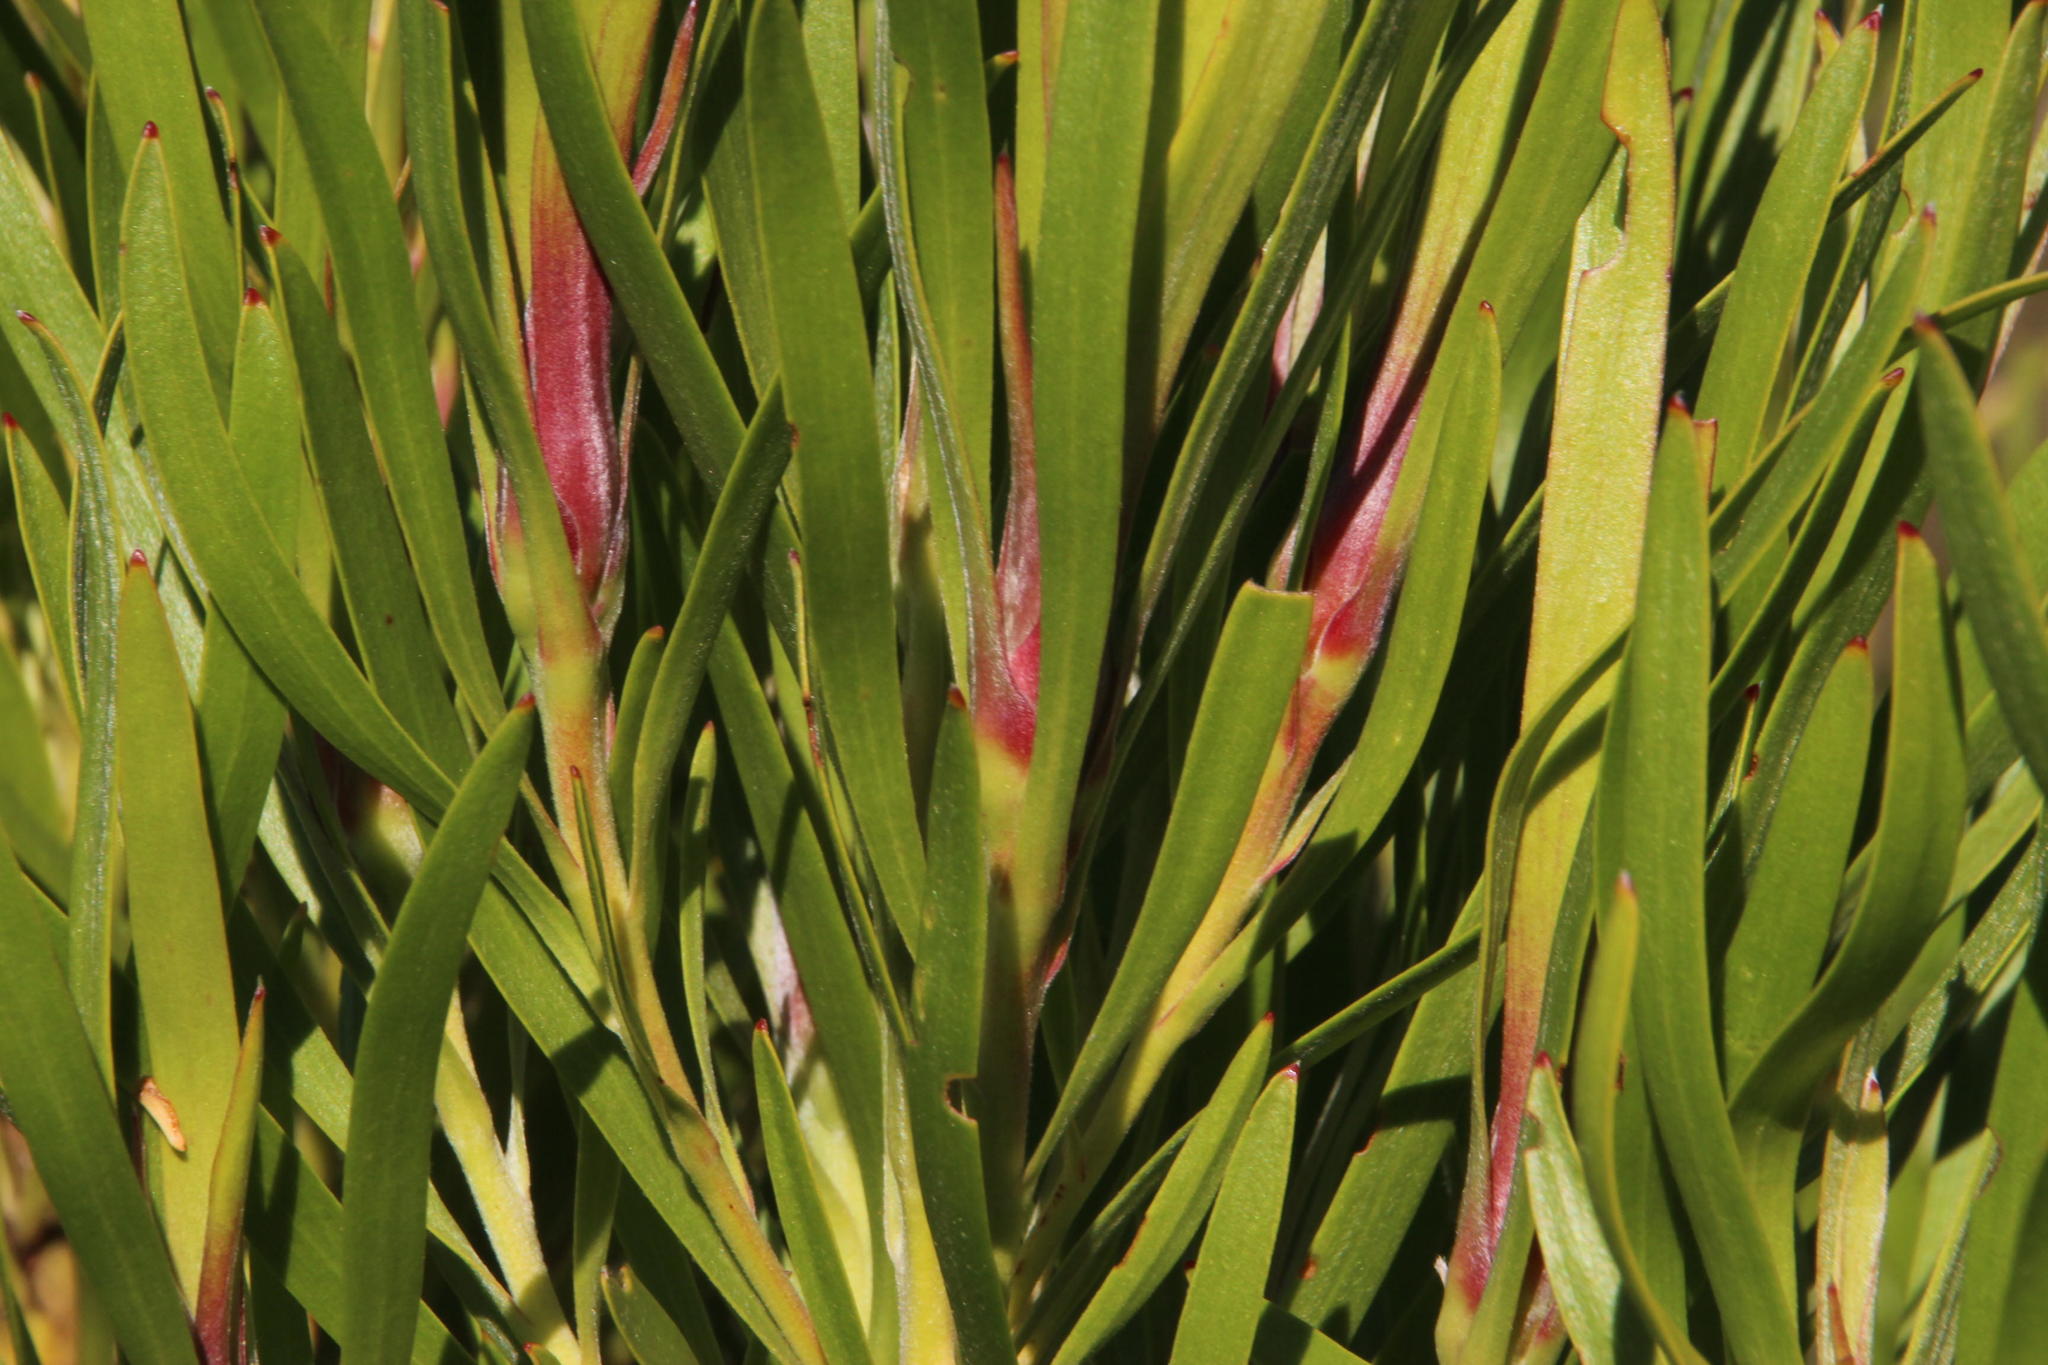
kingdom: Plantae
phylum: Tracheophyta
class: Magnoliopsida
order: Proteales
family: Proteaceae
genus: Leucadendron
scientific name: Leucadendron eucalyptifolium
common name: Gum-leaved conebush
